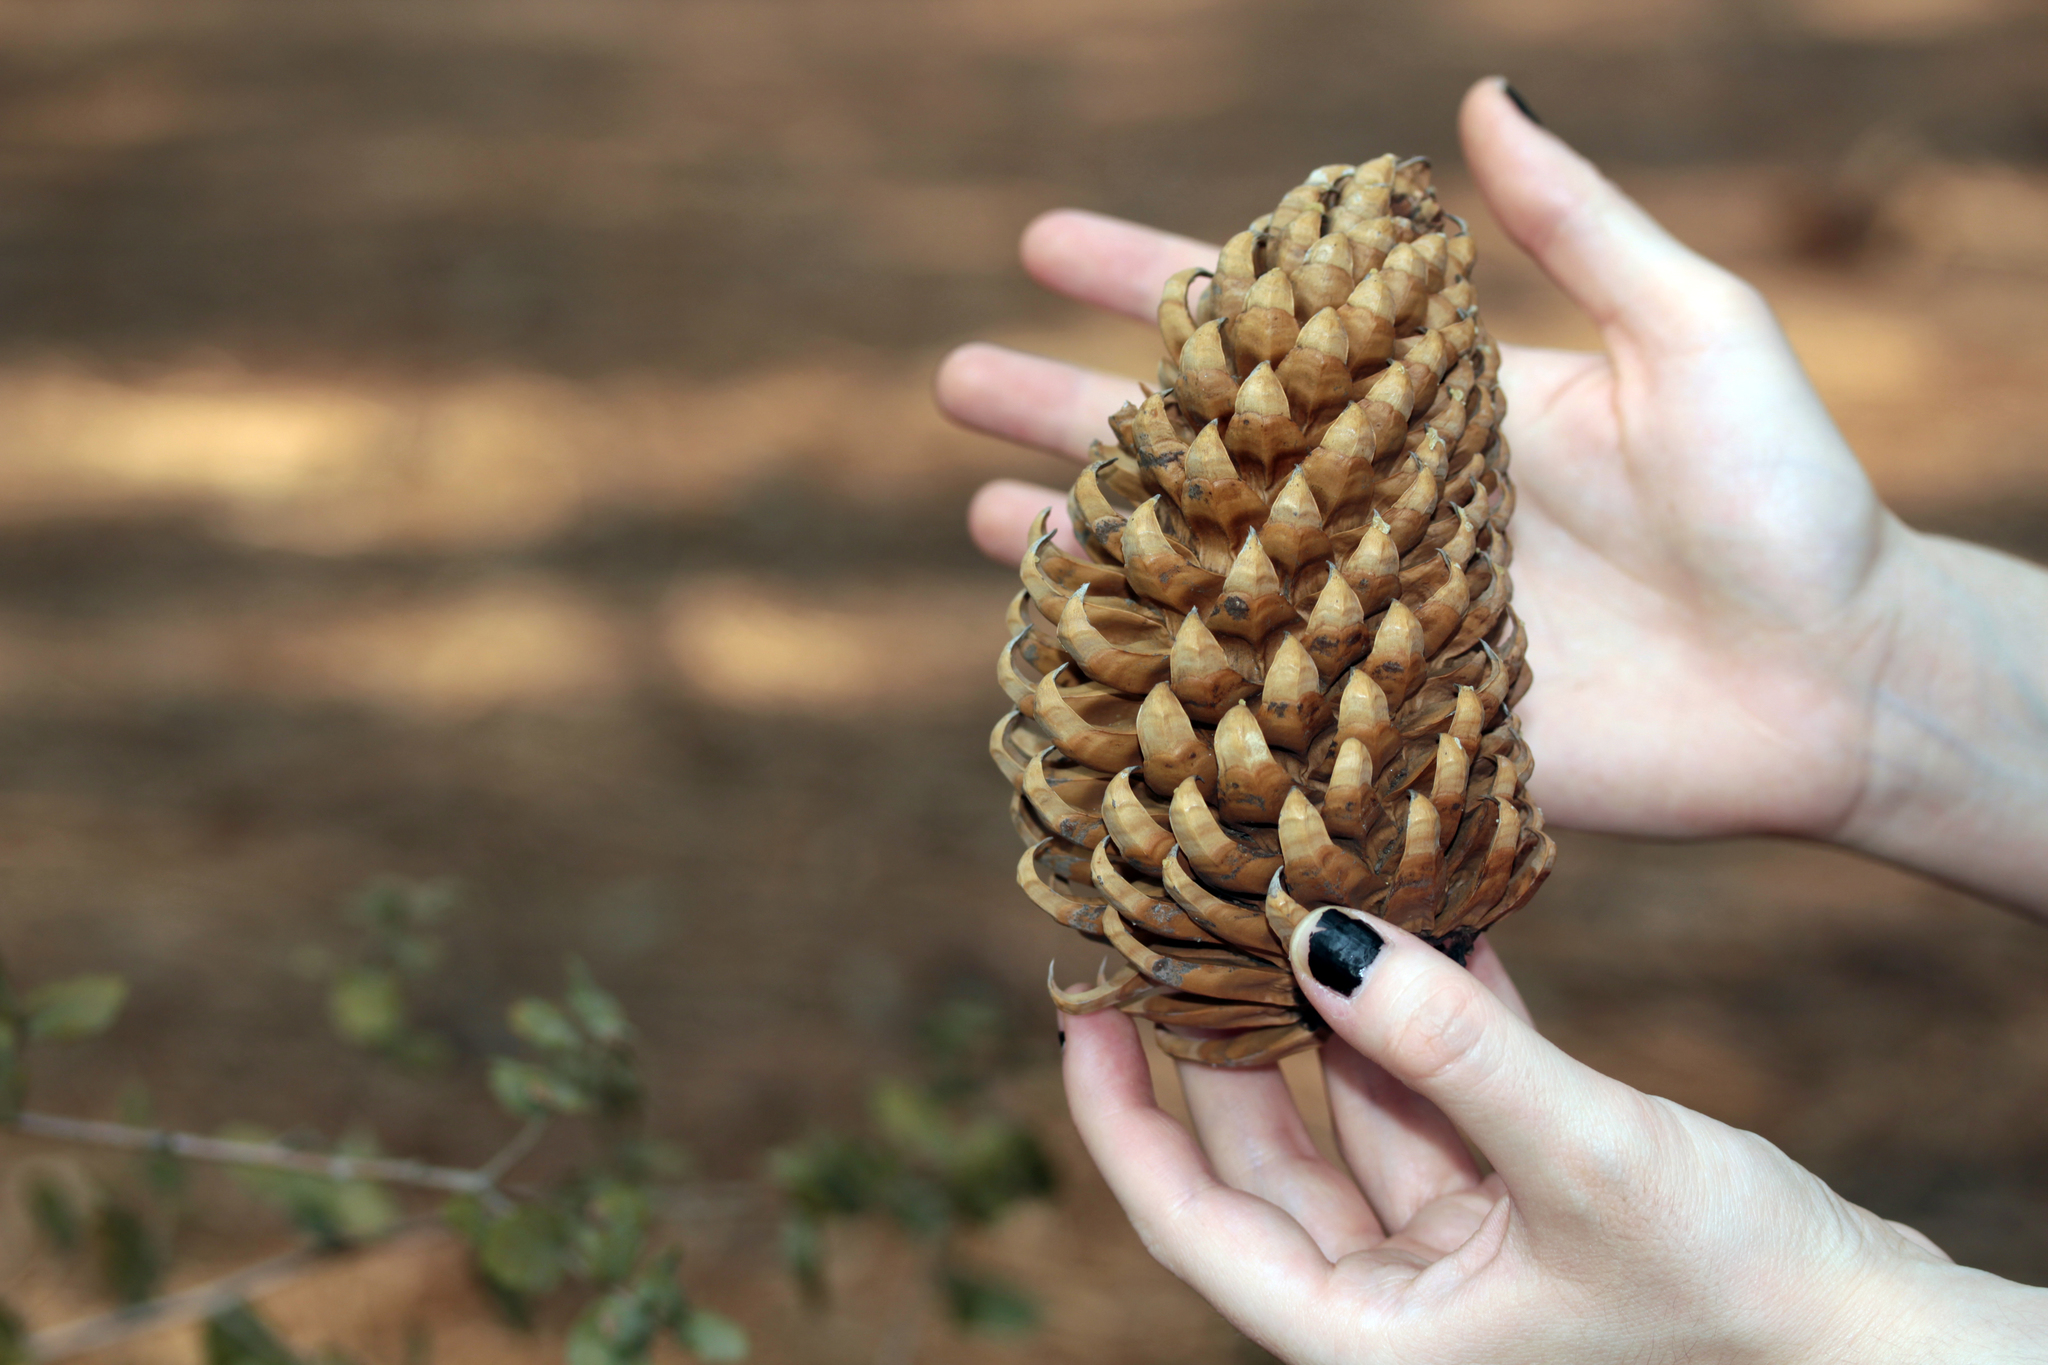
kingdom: Plantae
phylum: Tracheophyta
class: Pinopsida
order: Pinales
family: Pinaceae
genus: Pinus
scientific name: Pinus coulteri
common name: Coulter pine
